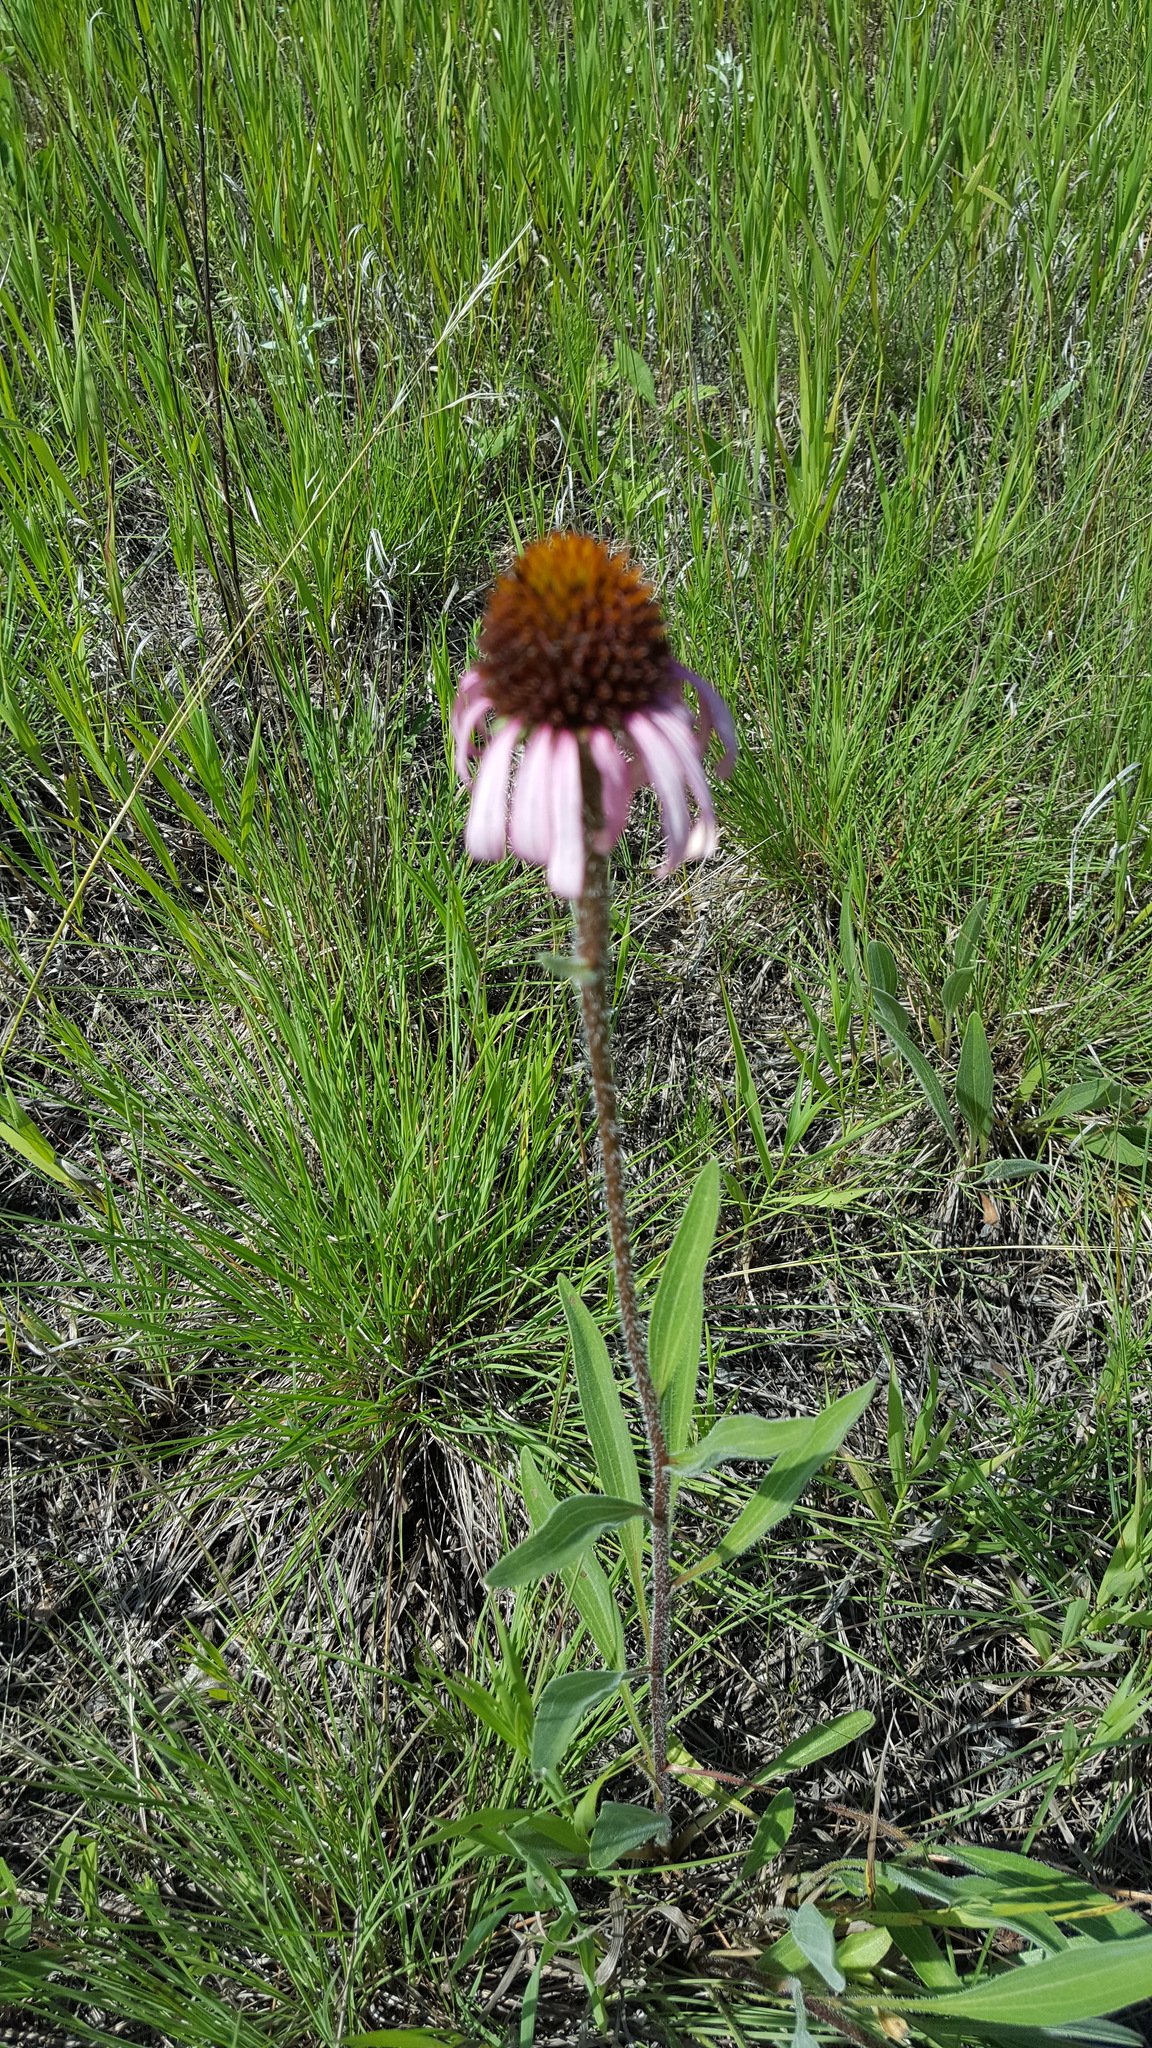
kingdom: Plantae
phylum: Tracheophyta
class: Magnoliopsida
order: Asterales
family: Asteraceae
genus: Echinacea
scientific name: Echinacea angustifolia
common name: Black-sampson echinacea
